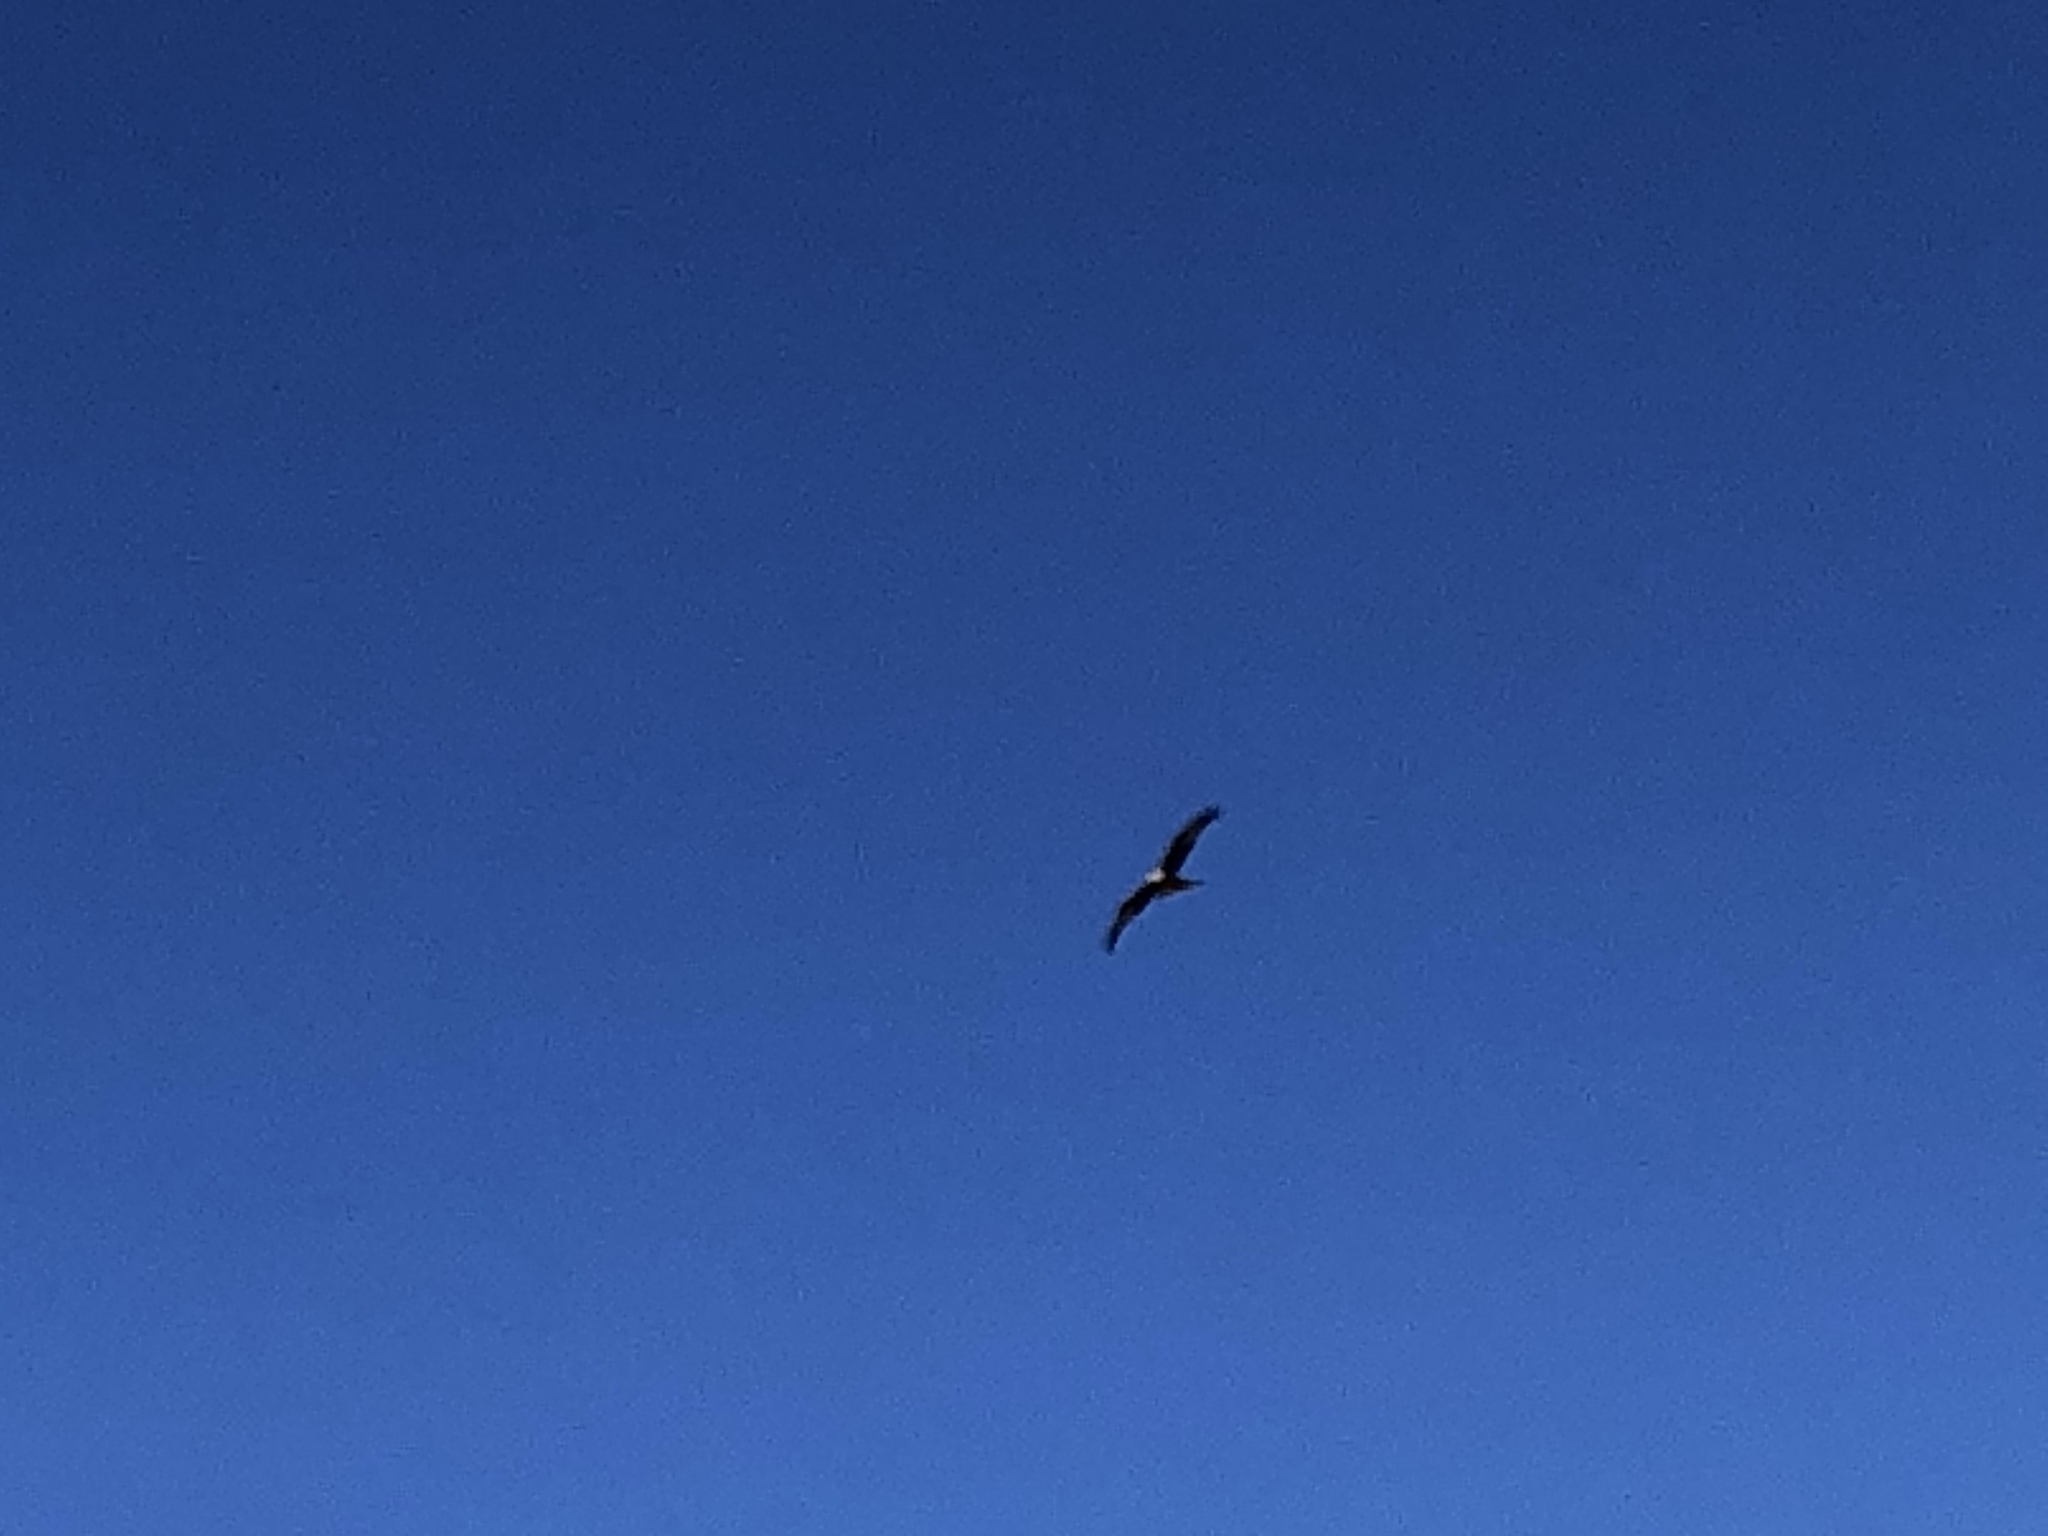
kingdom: Animalia
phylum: Chordata
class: Aves
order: Accipitriformes
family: Accipitridae
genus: Milvus
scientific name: Milvus milvus
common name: Red kite
